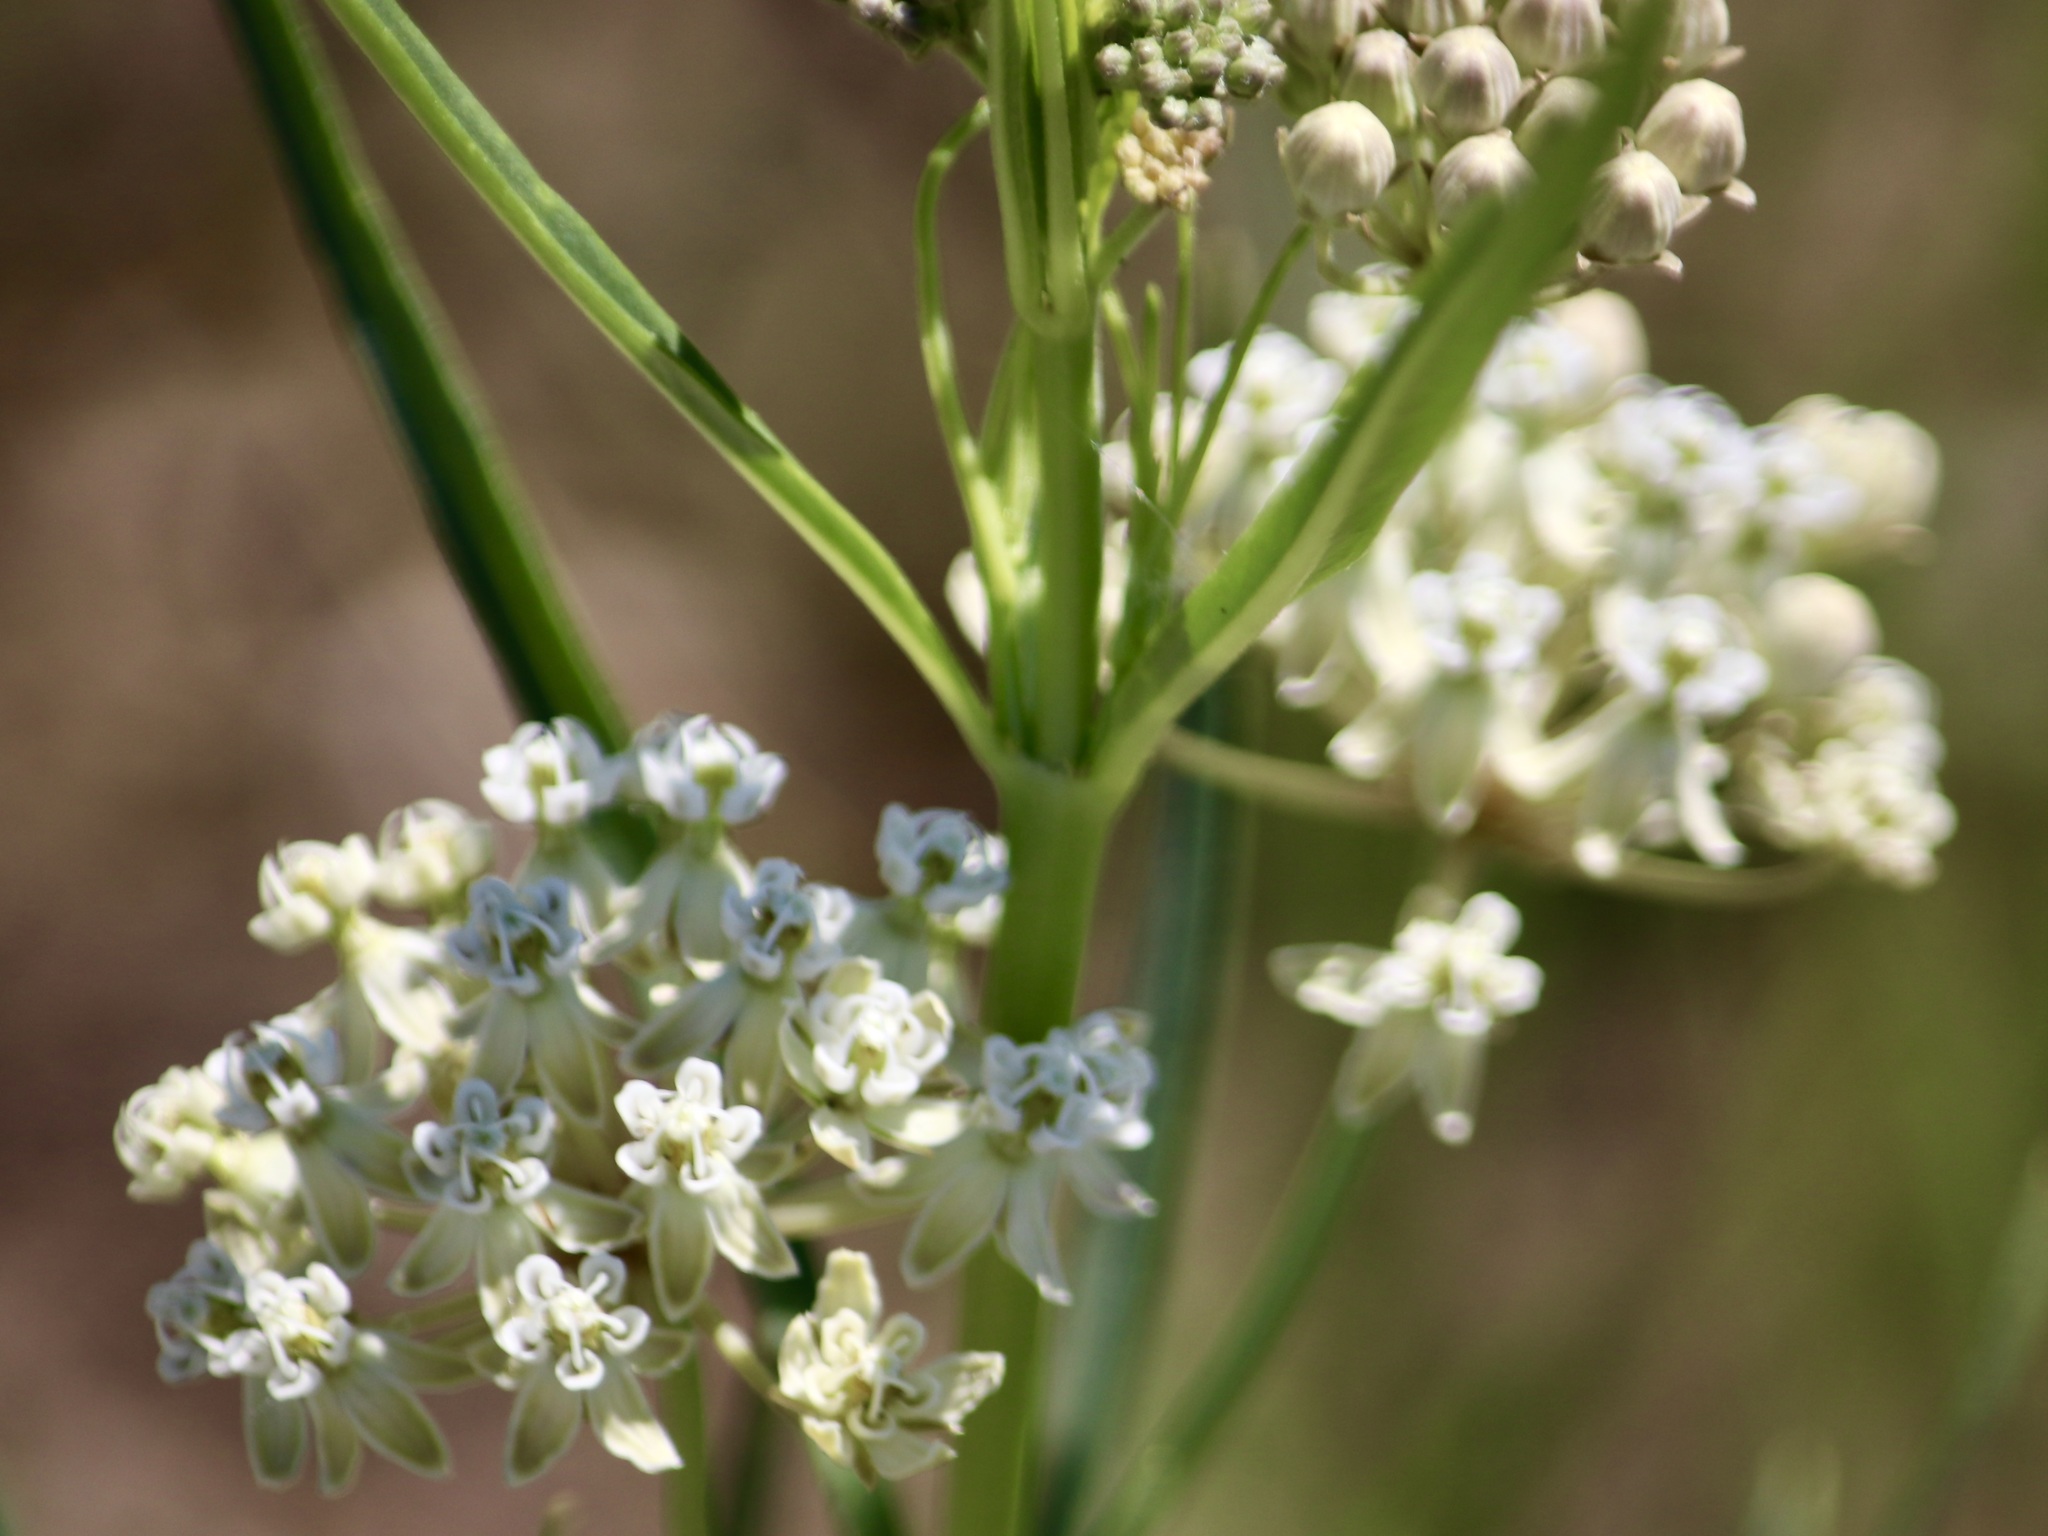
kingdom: Plantae
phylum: Tracheophyta
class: Magnoliopsida
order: Gentianales
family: Apocynaceae
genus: Asclepias
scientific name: Asclepias subverticillata
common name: Horsetail milkweed
